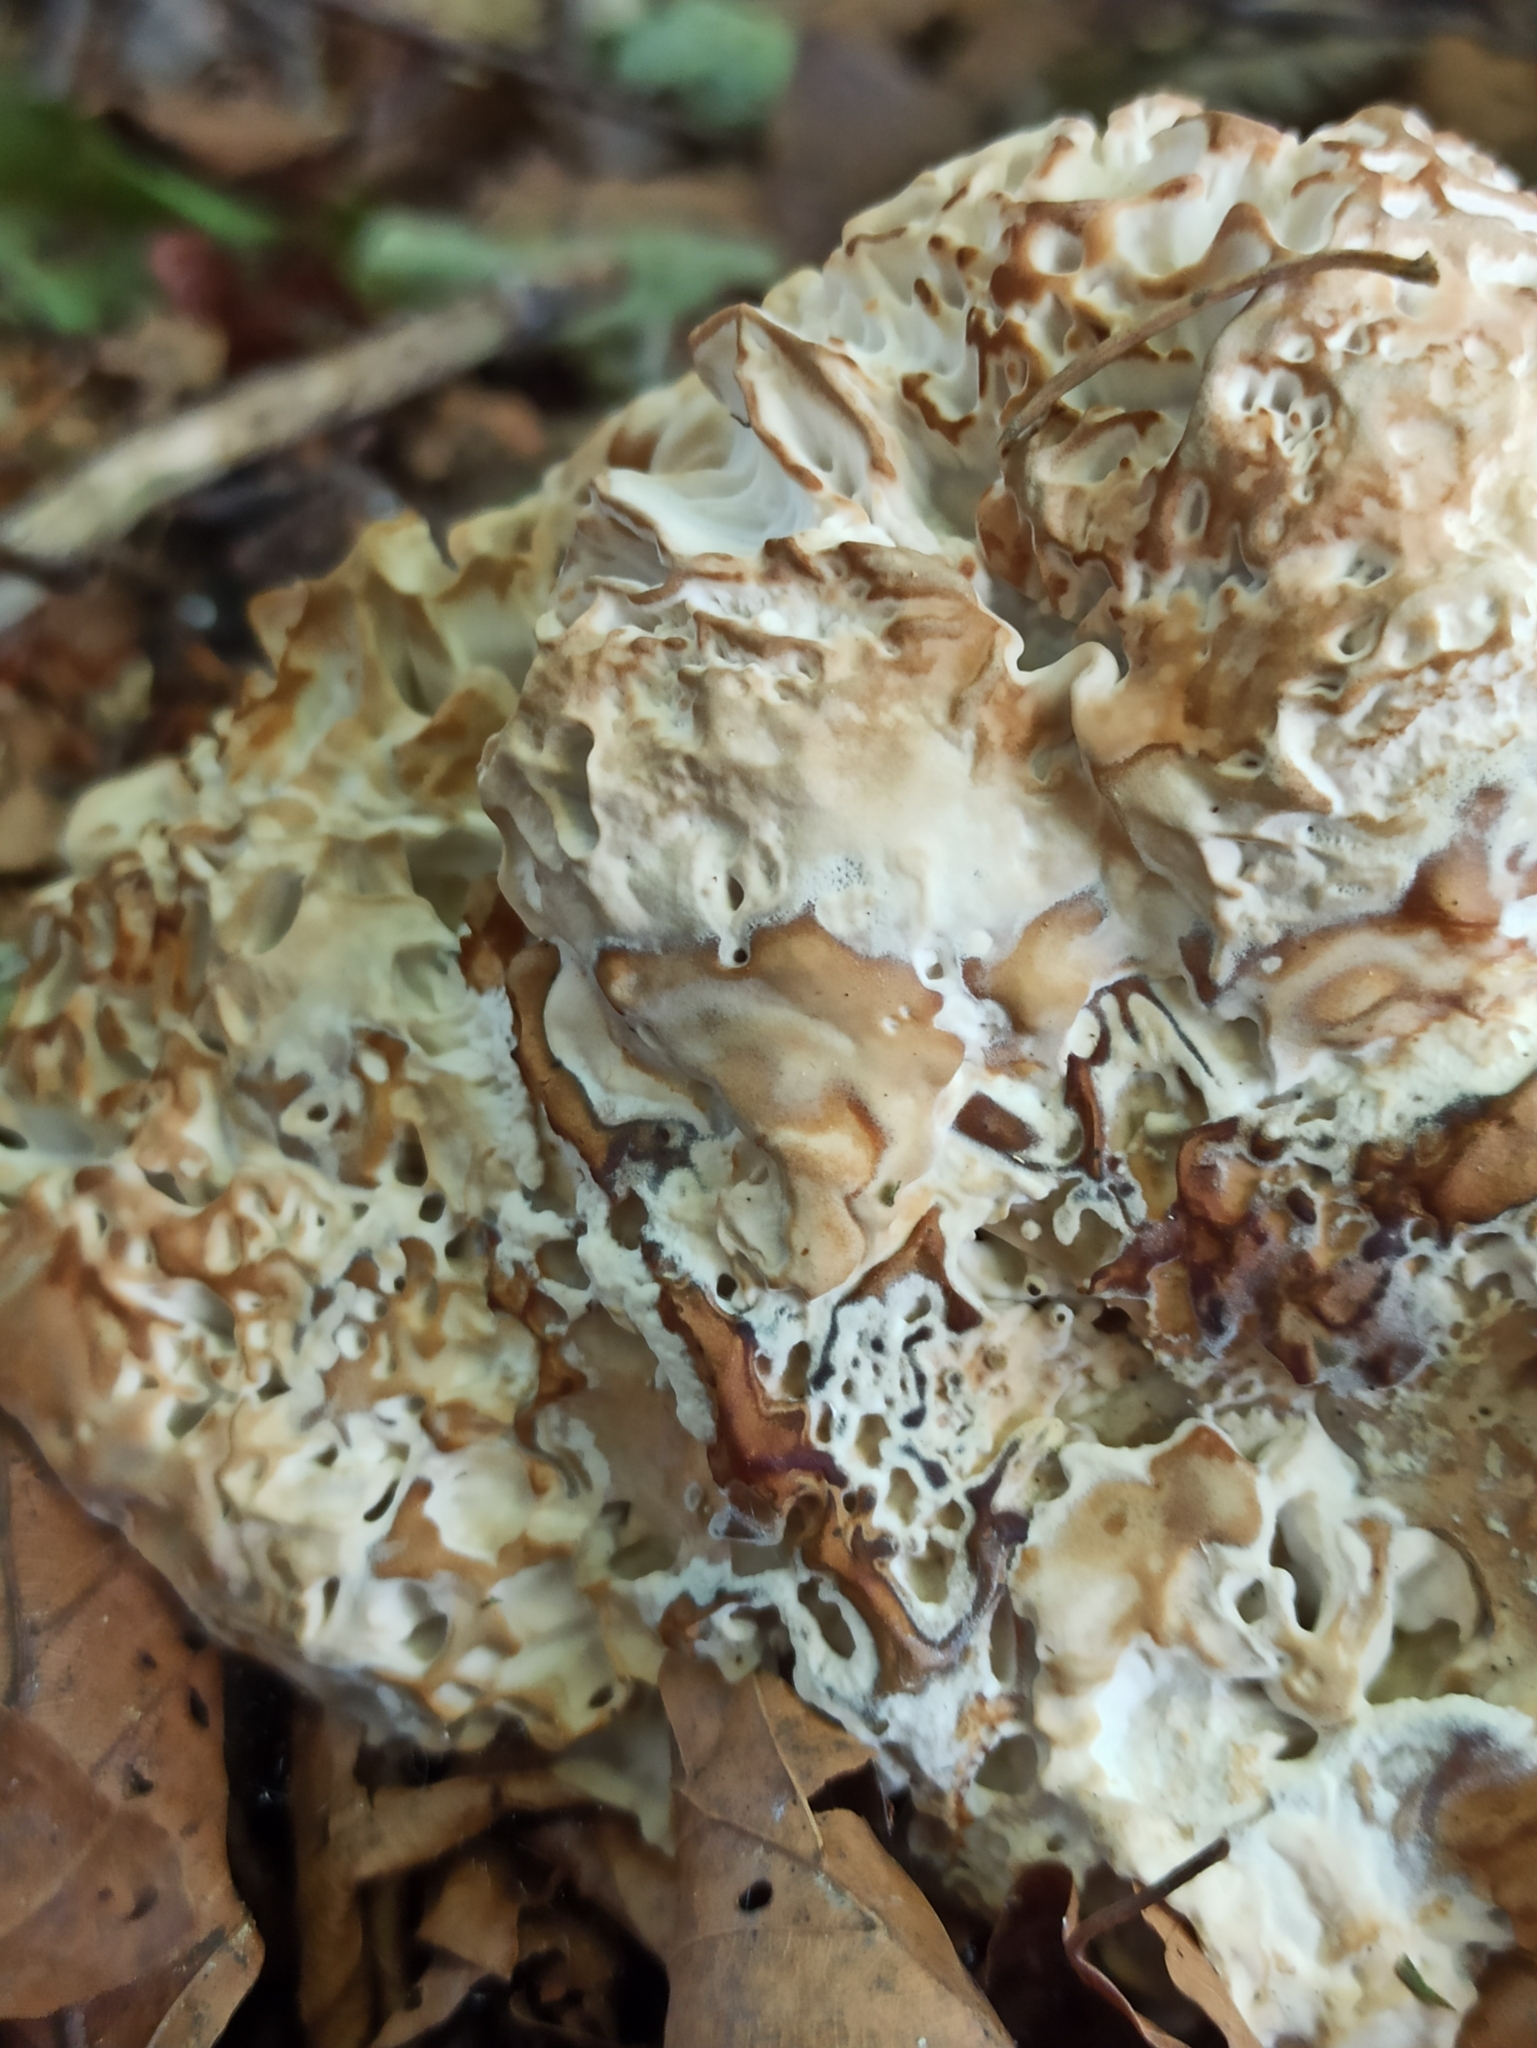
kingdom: Fungi
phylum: Basidiomycota
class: Agaricomycetes
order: Polyporales
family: Sparassidaceae
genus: Sparassis
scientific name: Sparassis crispa
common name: Brain fungus
